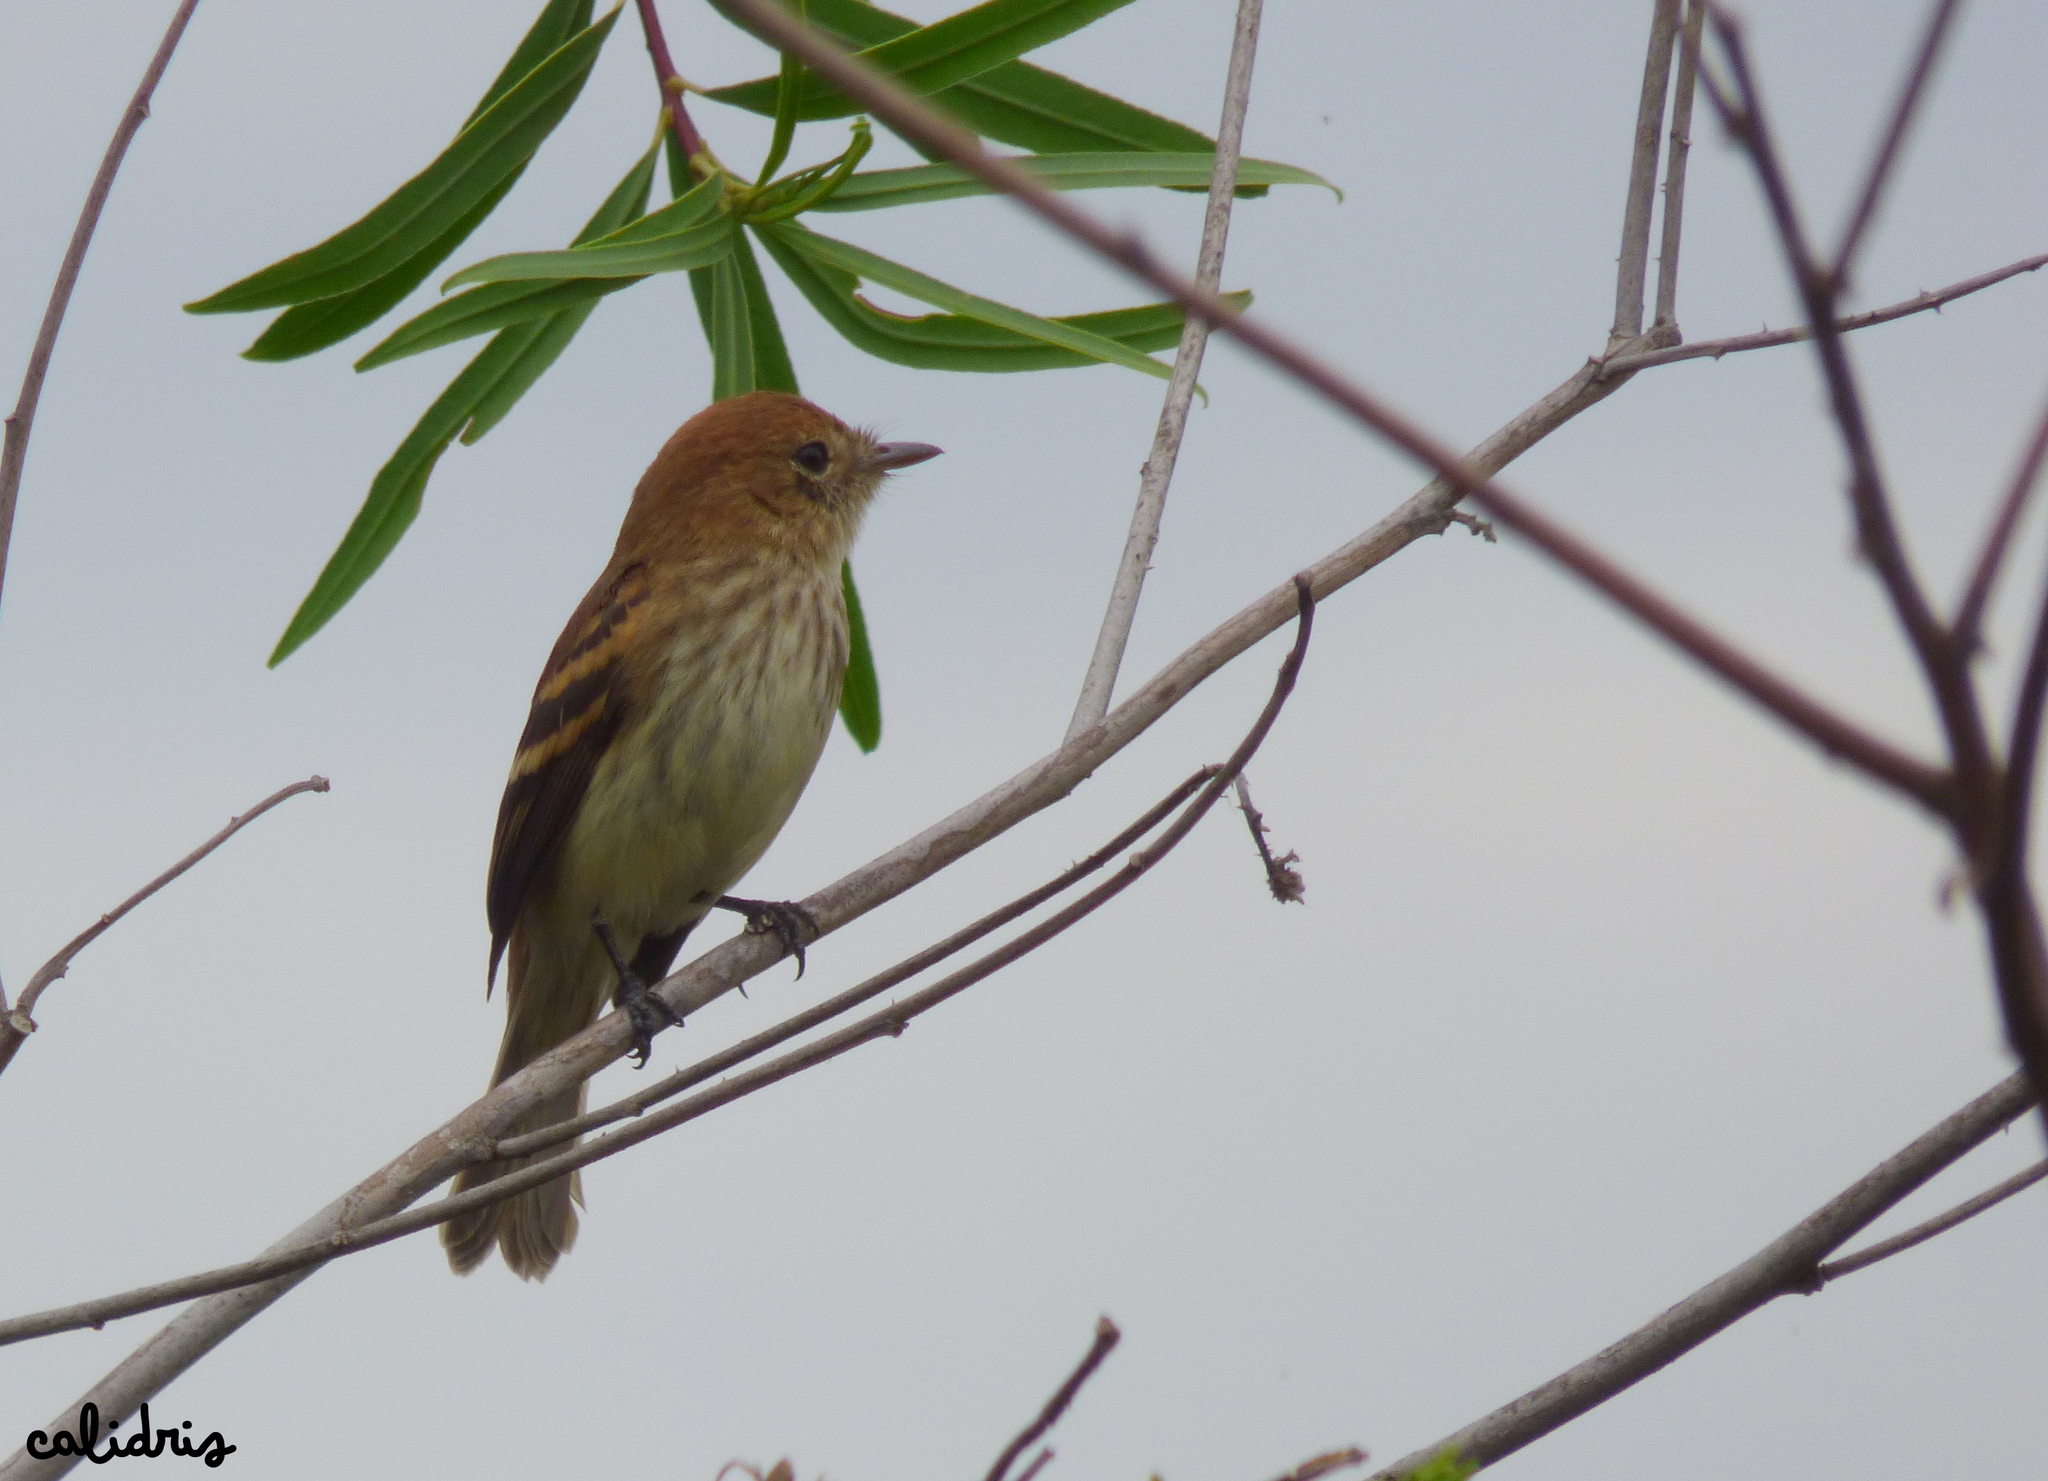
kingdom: Animalia
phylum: Chordata
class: Aves
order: Passeriformes
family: Tyrannidae
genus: Myiophobus
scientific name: Myiophobus fasciatus
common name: Bran-colored flycatcher
